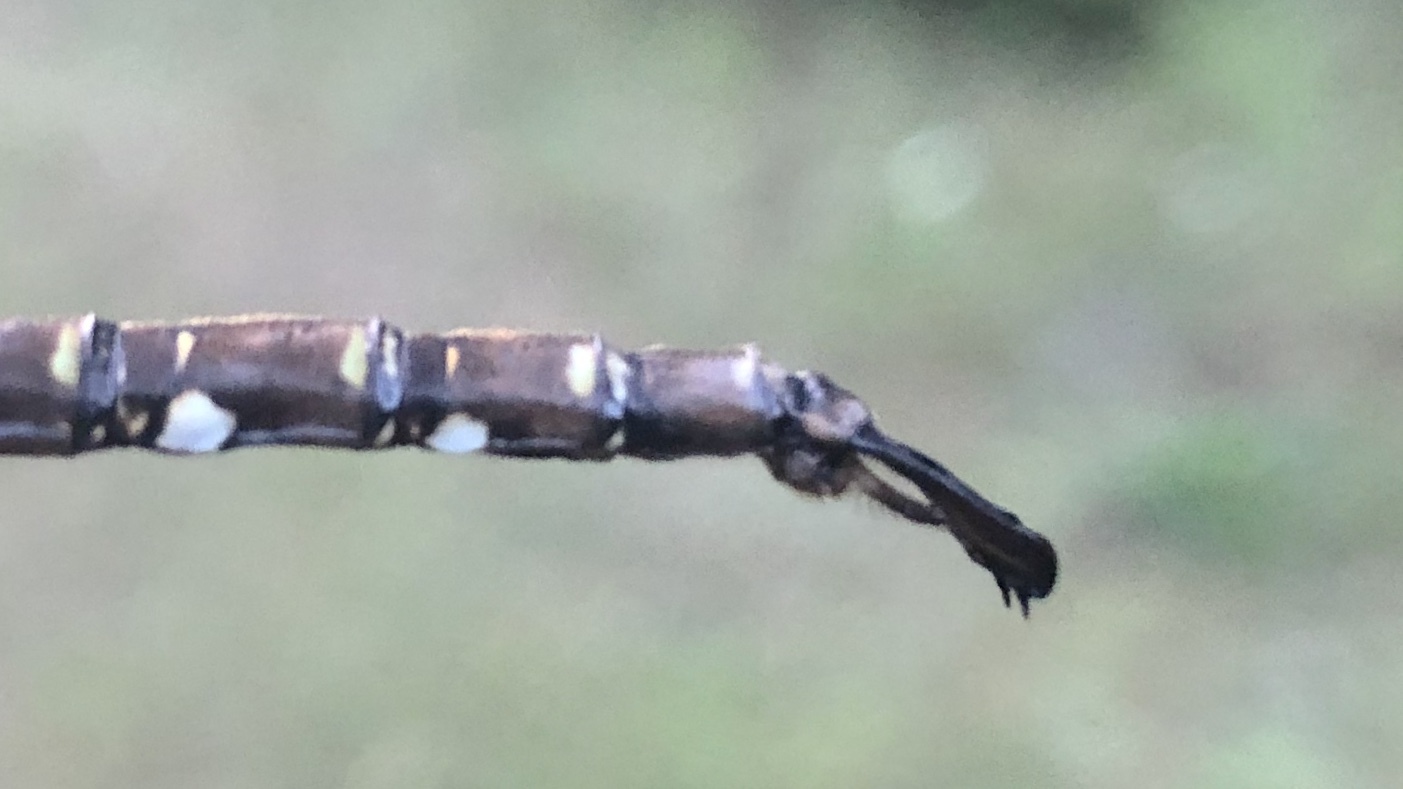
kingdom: Animalia
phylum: Arthropoda
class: Insecta
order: Odonata
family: Aeshnidae
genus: Aeshna
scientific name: Aeshna umbrosa
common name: Shadow darner
